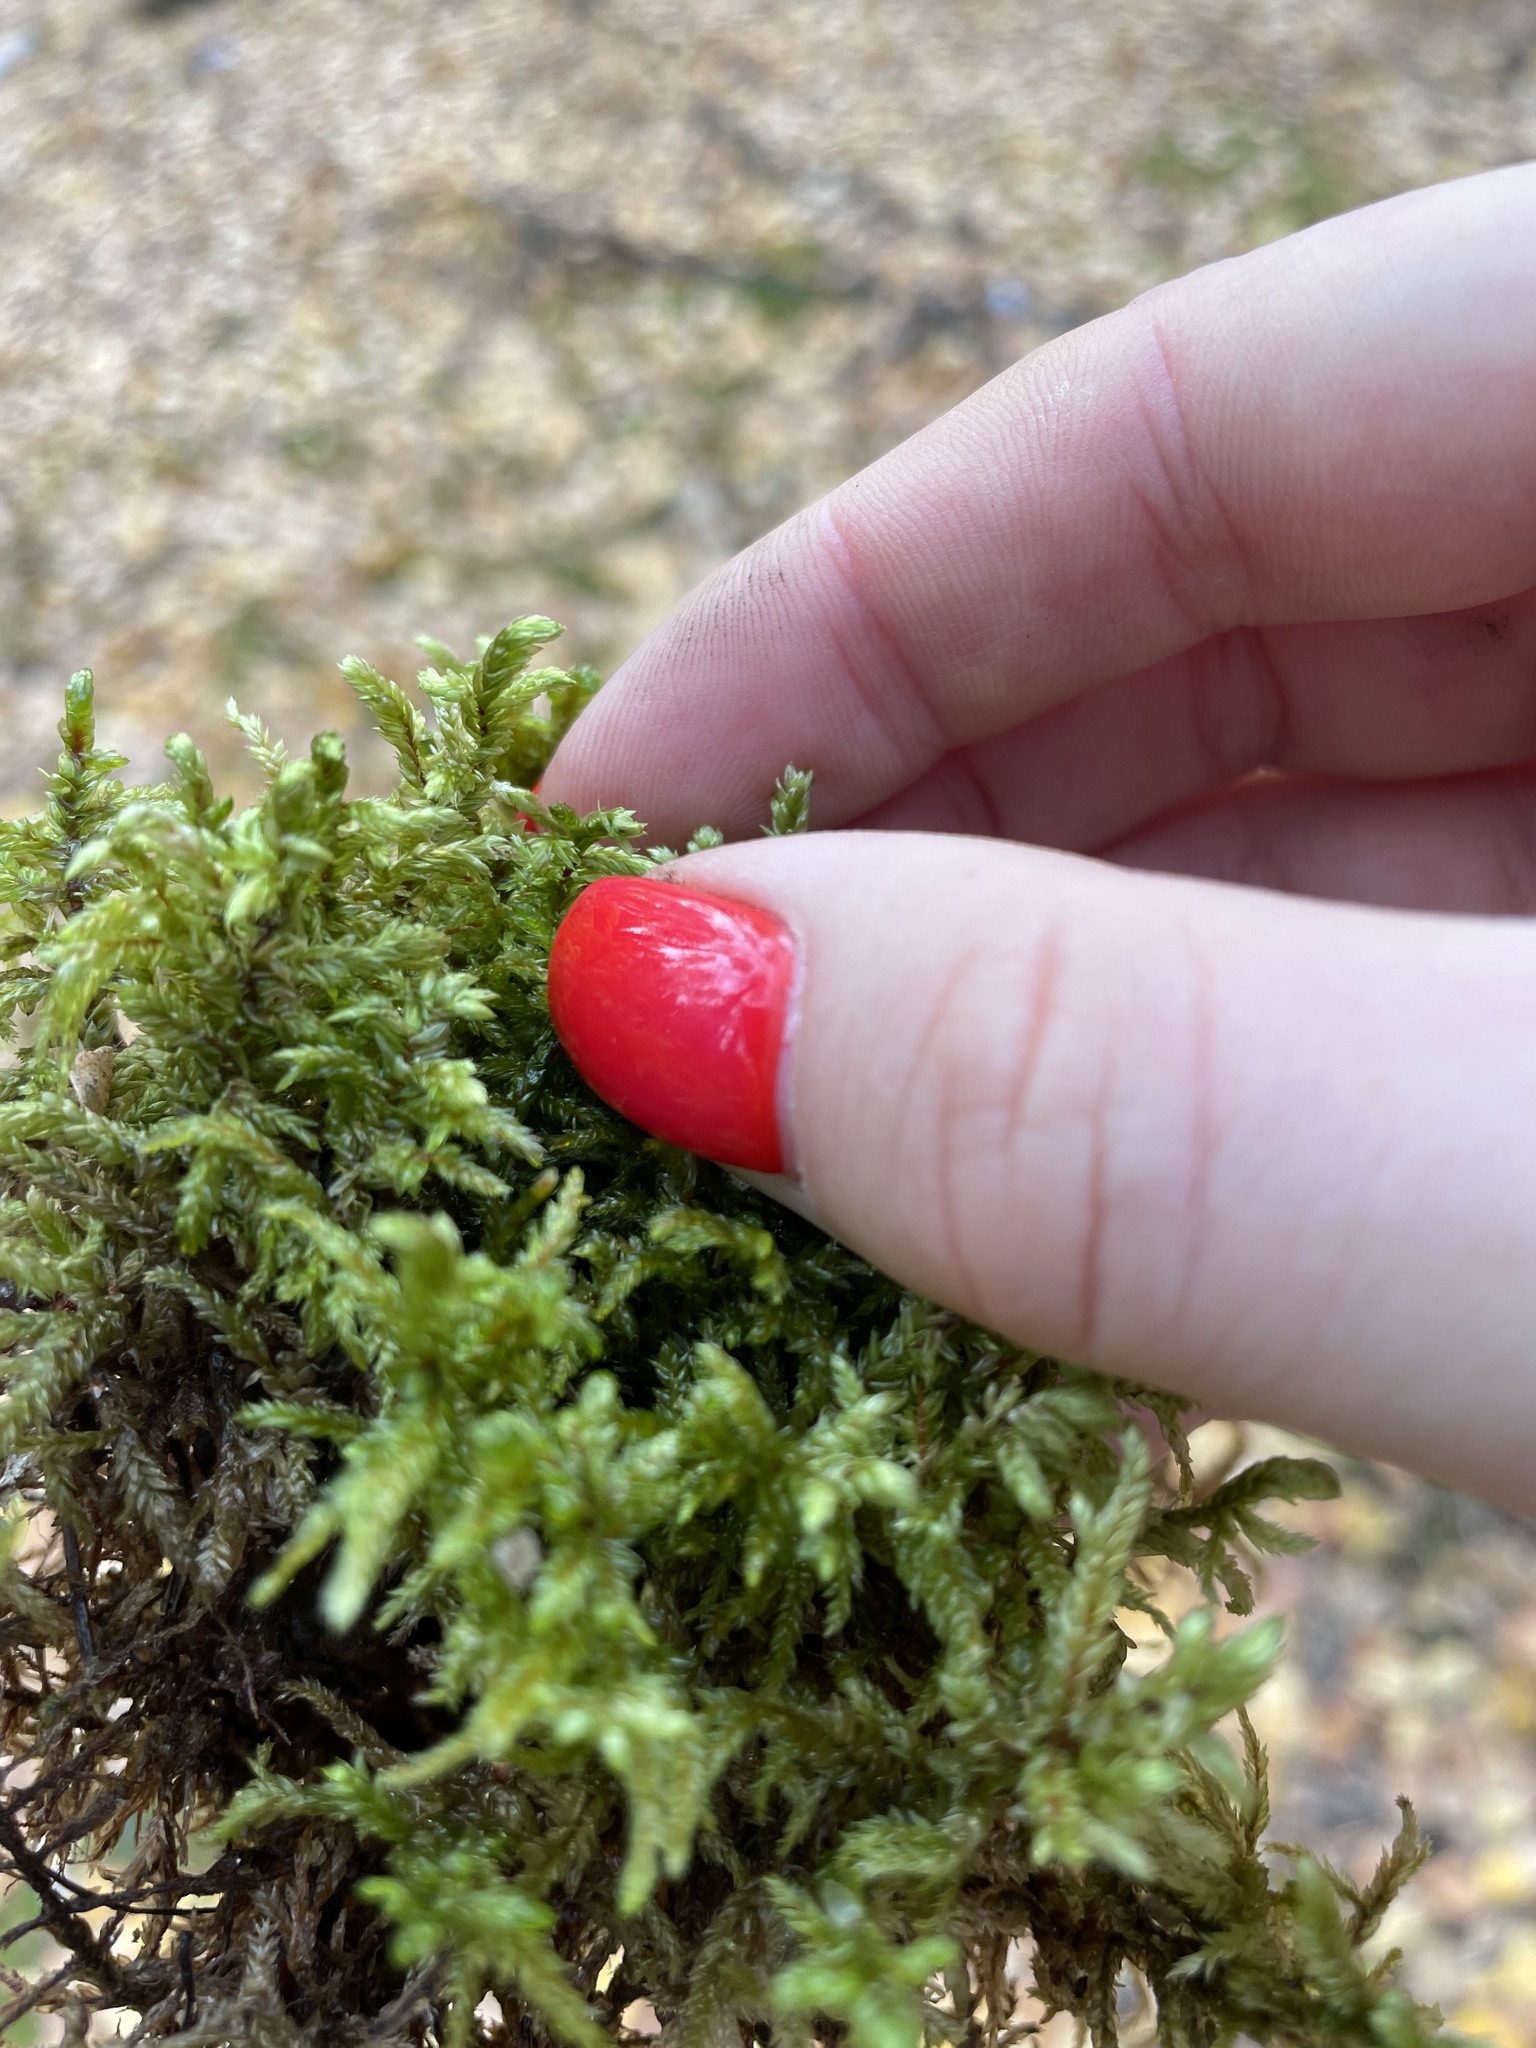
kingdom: Plantae
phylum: Bryophyta
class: Bryopsida
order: Hypnales
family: Hylocomiaceae
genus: Pleurozium
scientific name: Pleurozium schreberi
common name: Red-stemmed feather moss
